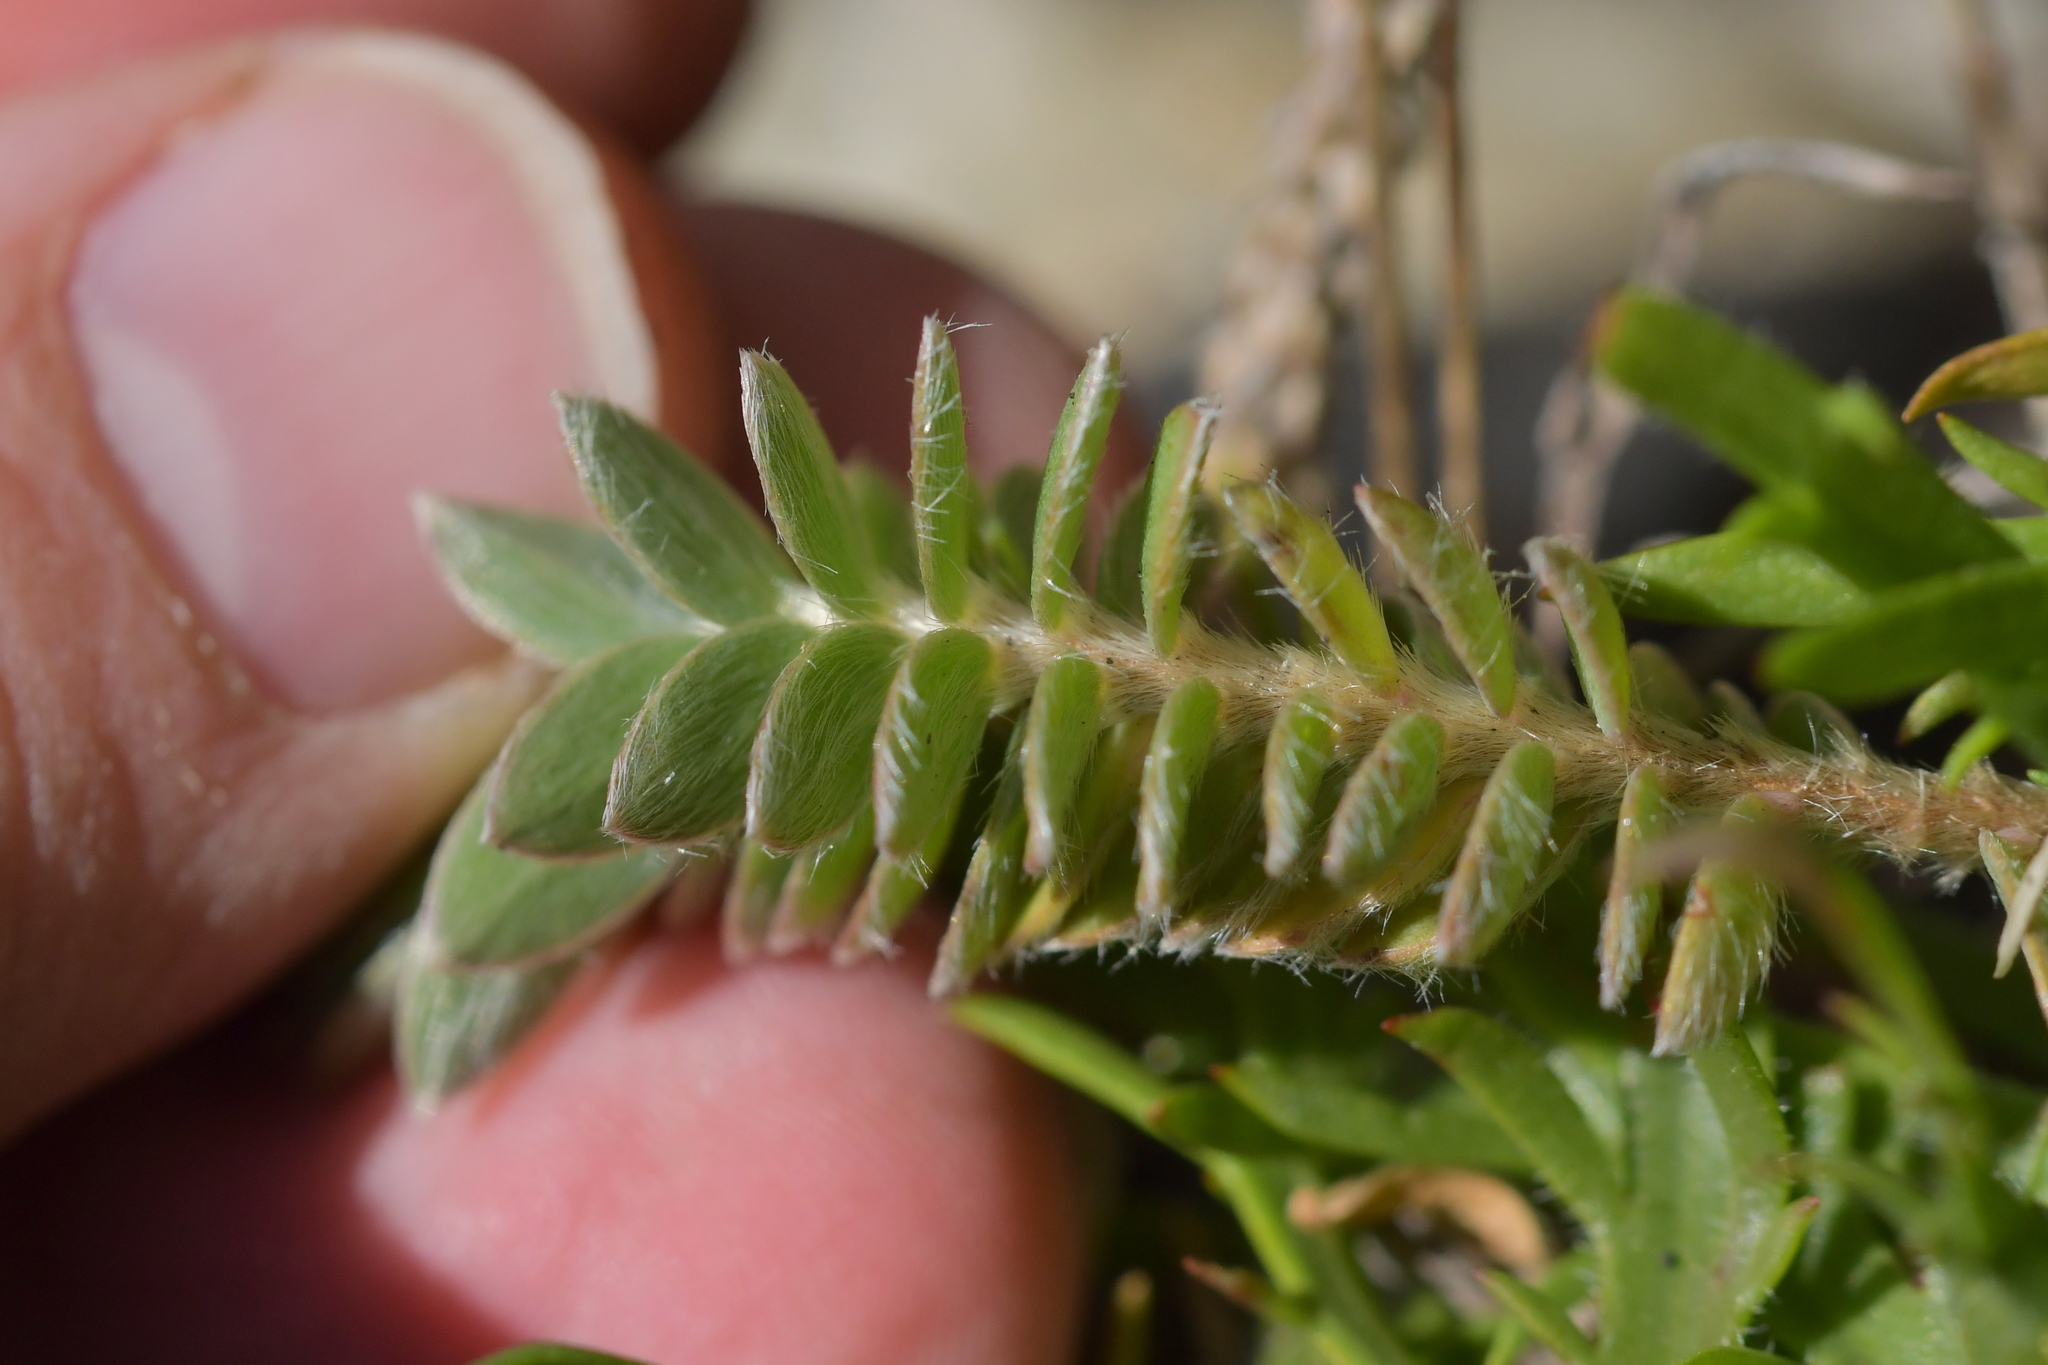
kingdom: Plantae
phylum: Tracheophyta
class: Magnoliopsida
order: Malvales
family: Thymelaeaceae
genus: Pimelea
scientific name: Pimelea villosa
